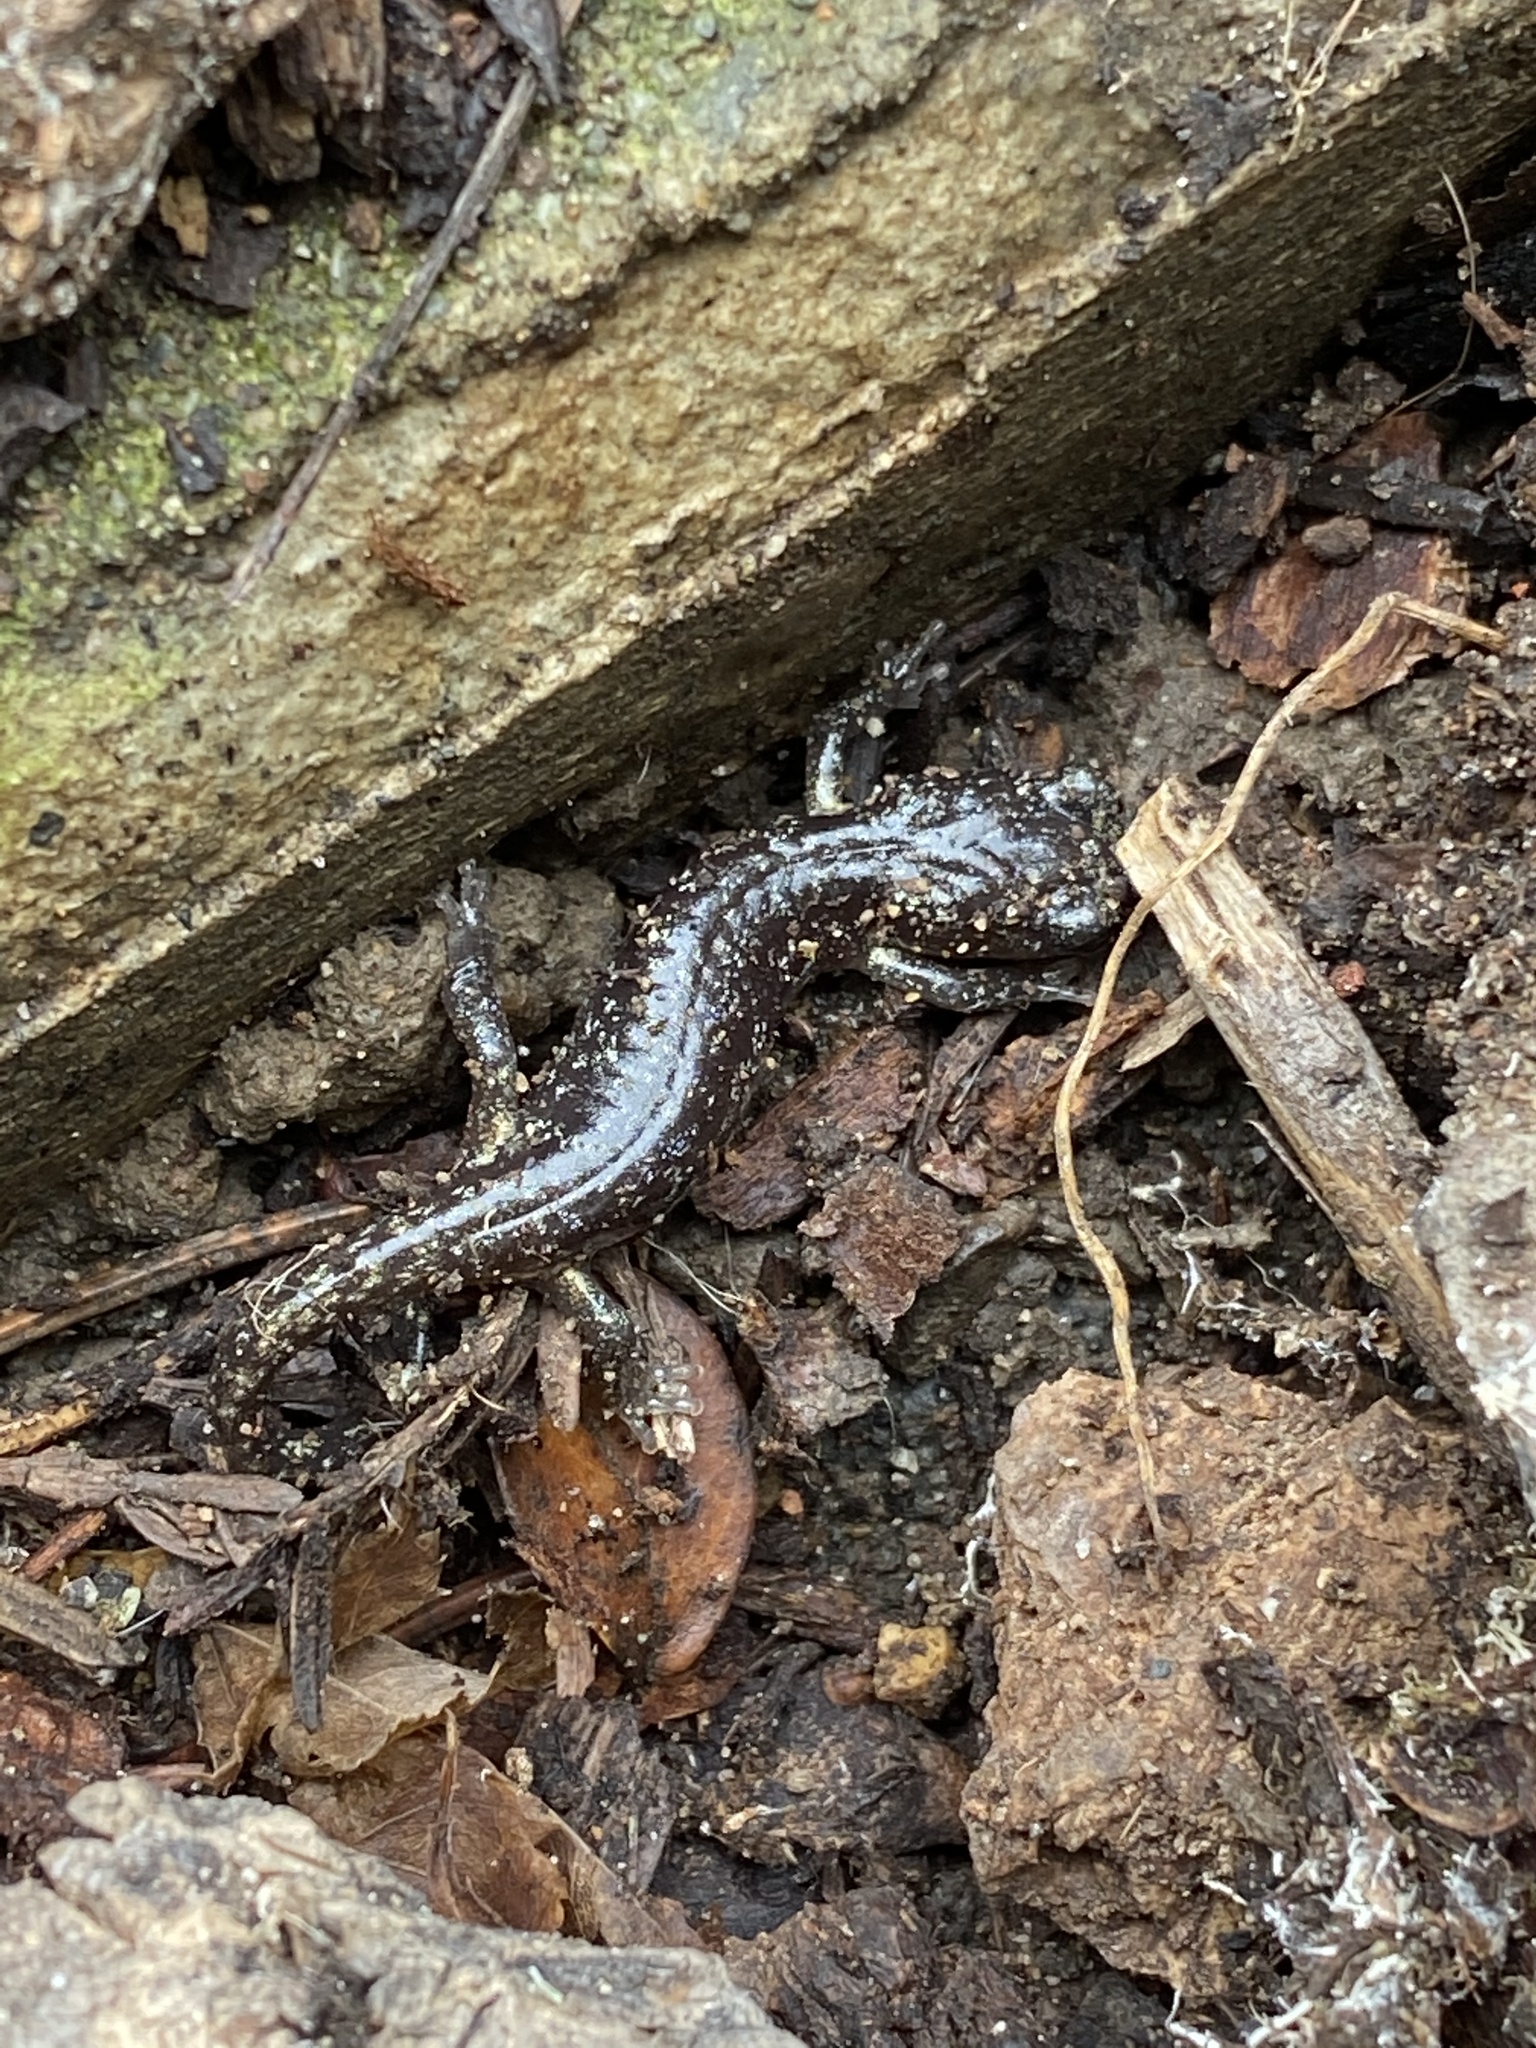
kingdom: Animalia
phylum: Chordata
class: Amphibia
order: Caudata
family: Plethodontidae
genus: Aneides
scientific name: Aneides lugubris
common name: Arboreal salamander
